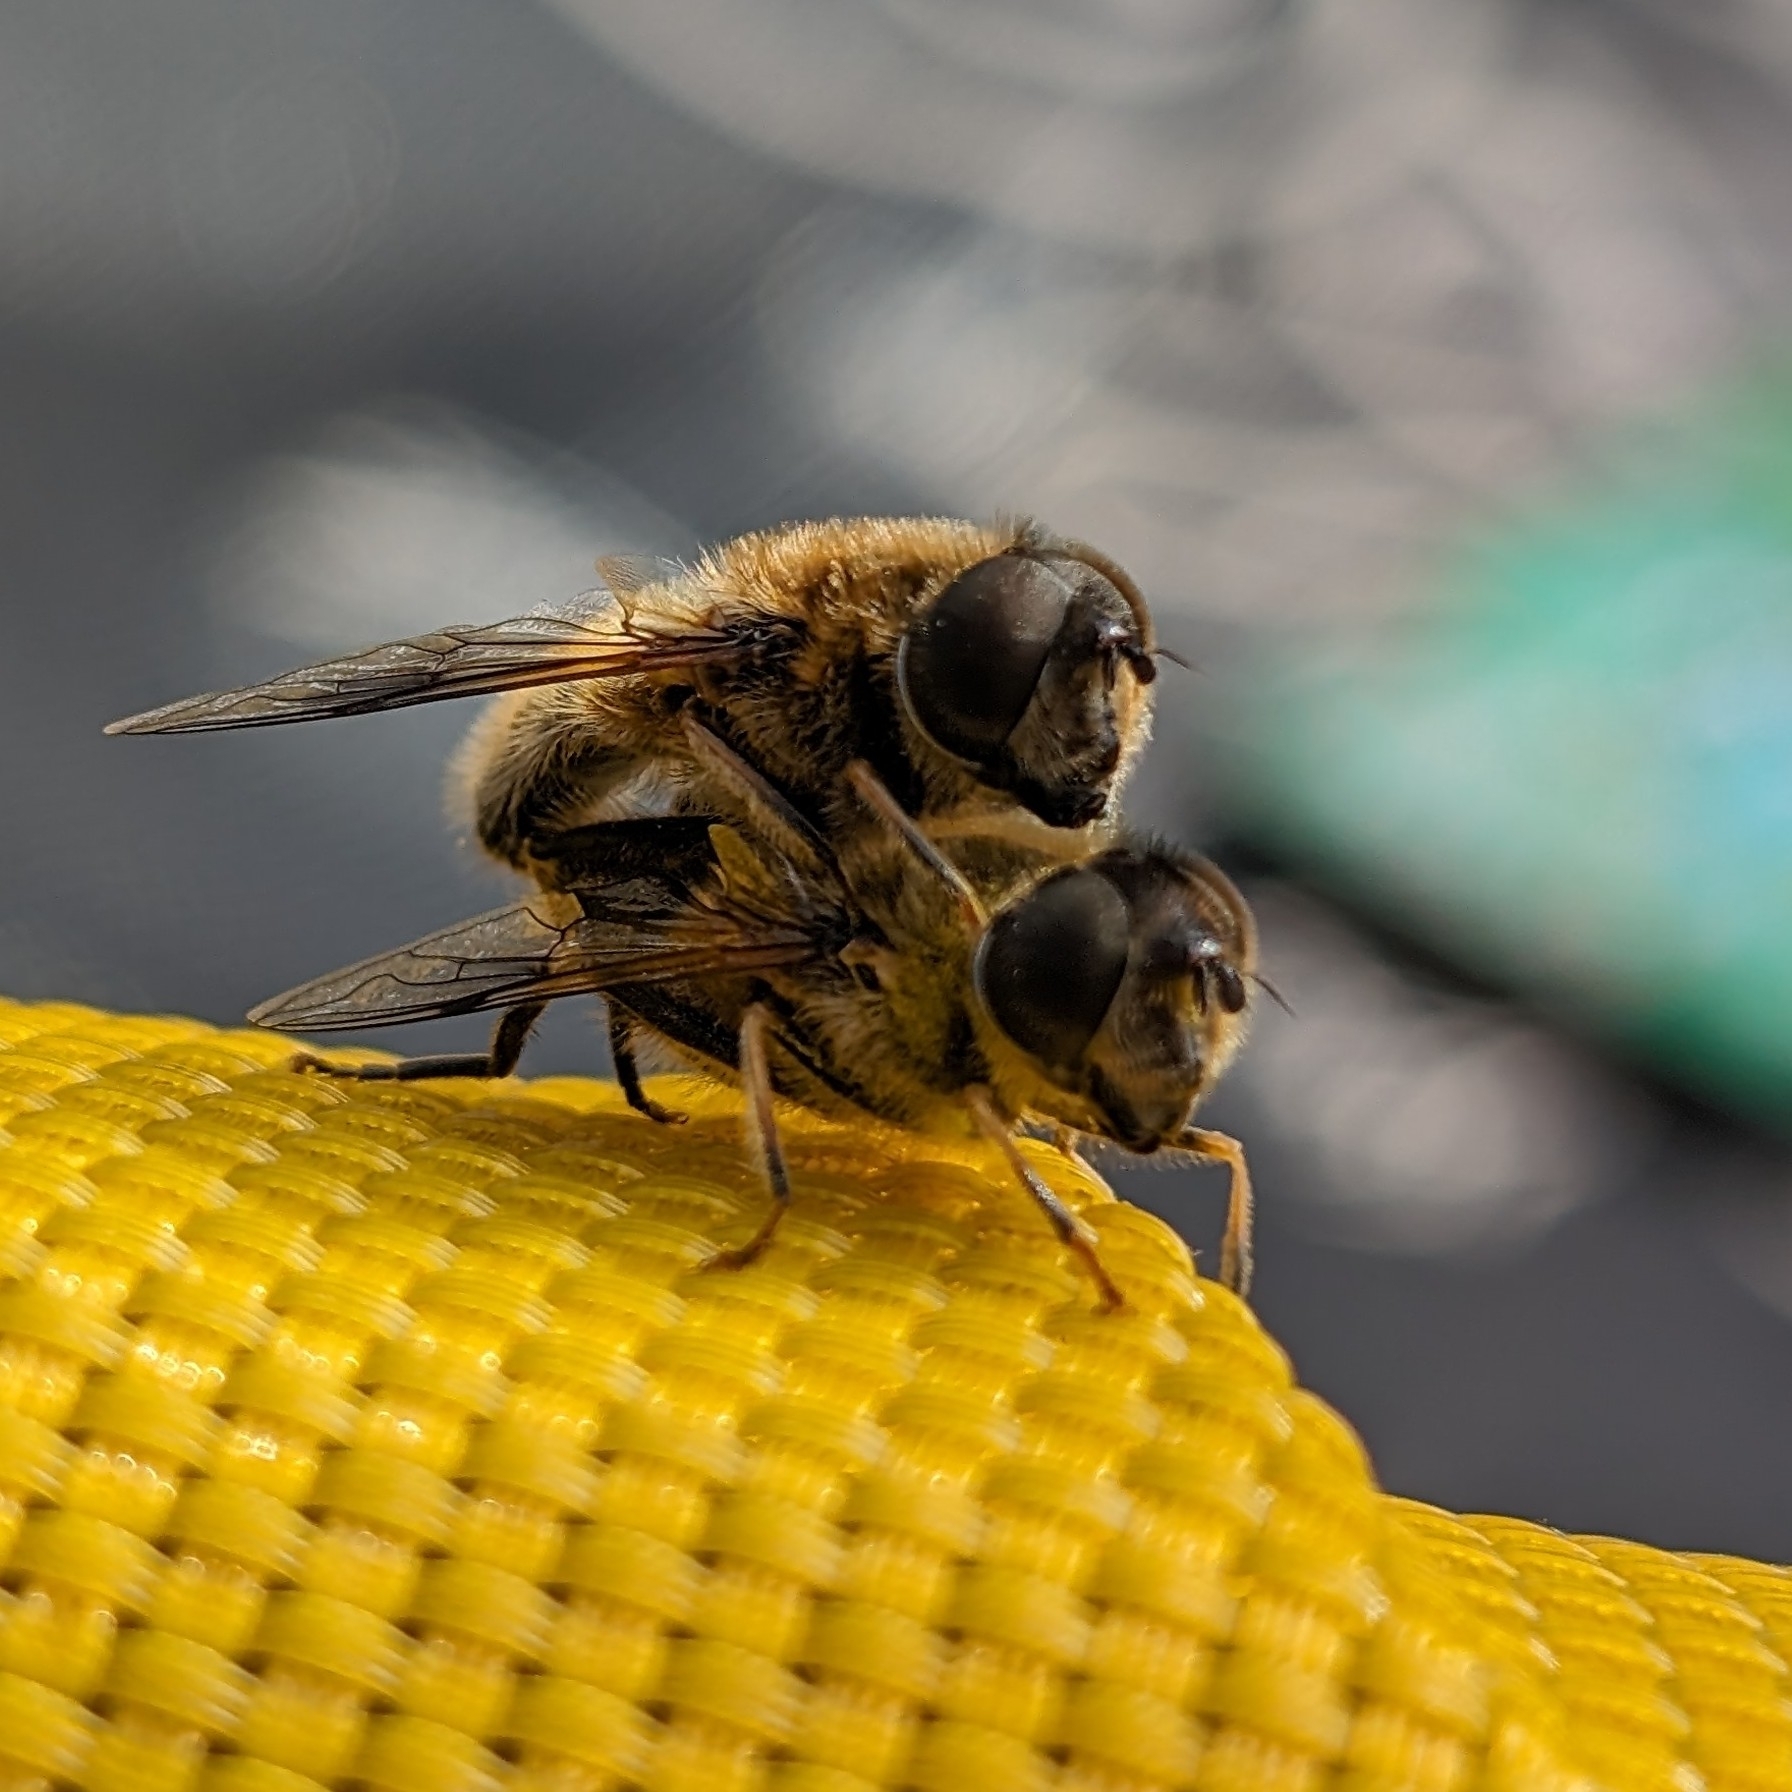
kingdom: Animalia
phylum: Arthropoda
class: Insecta
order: Diptera
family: Syrphidae
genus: Eristalis
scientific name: Eristalis pertinax
